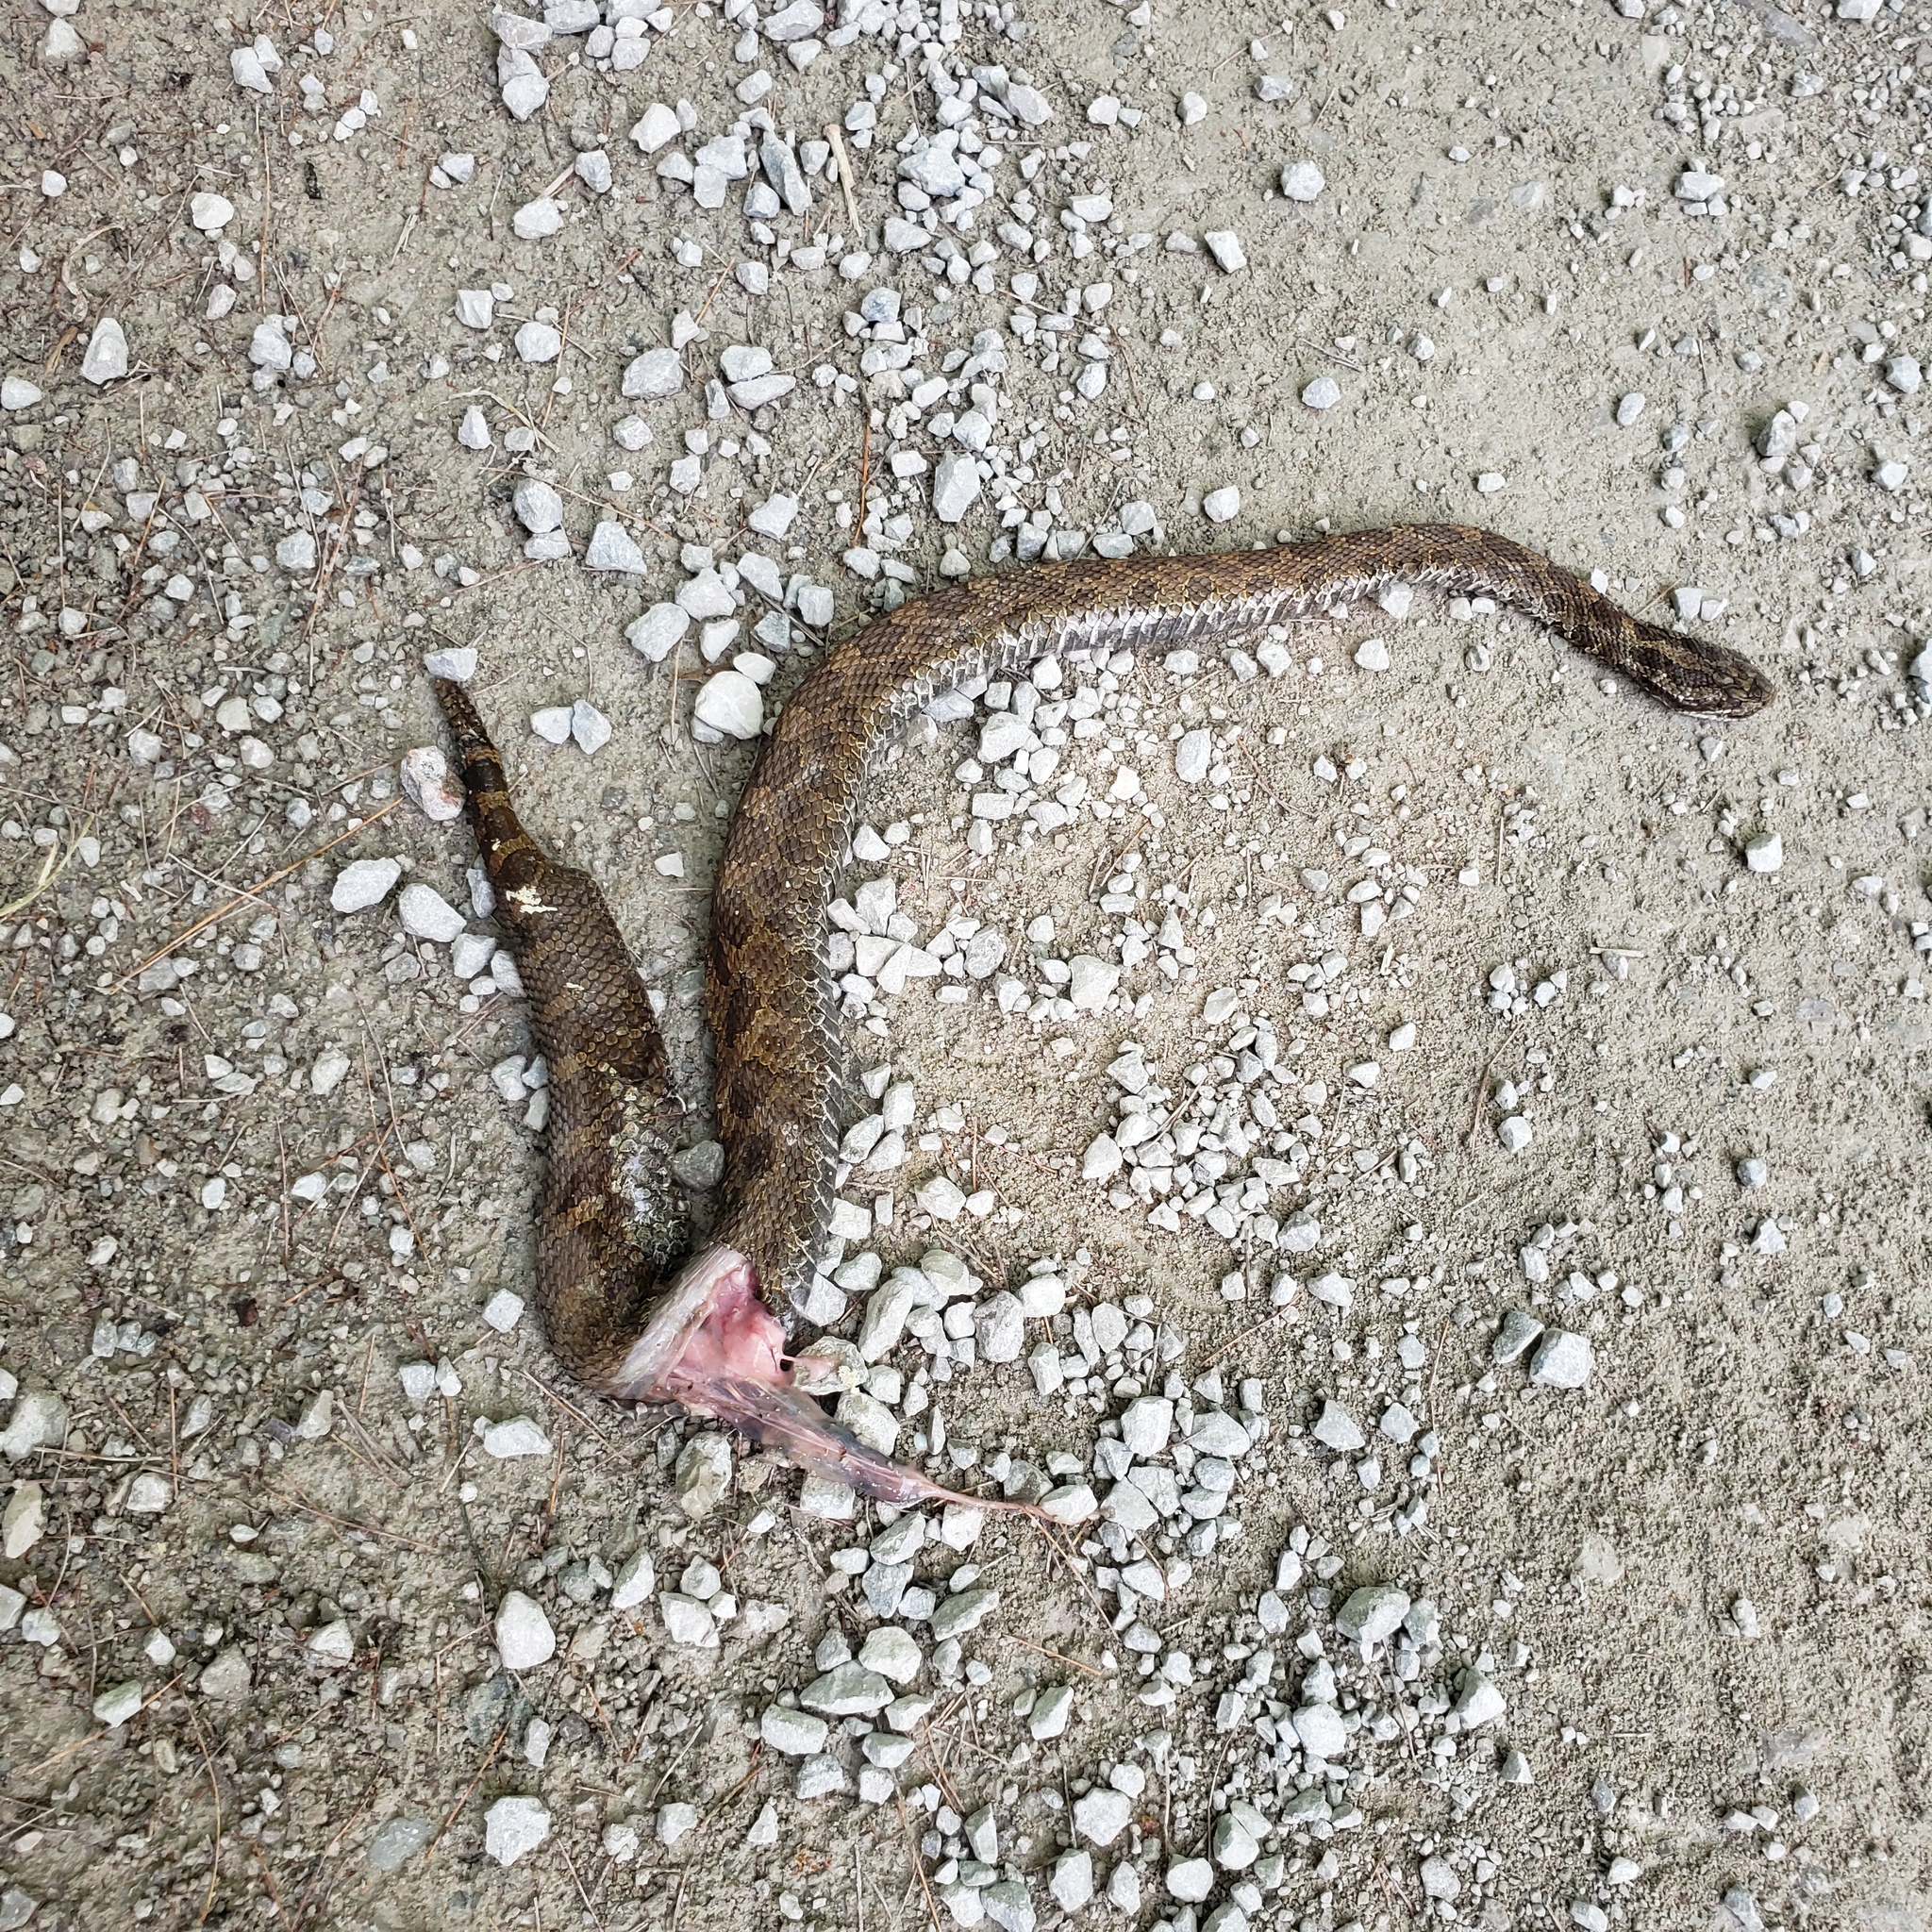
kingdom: Animalia
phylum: Chordata
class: Squamata
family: Viperidae
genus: Sistrurus
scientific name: Sistrurus catenatus
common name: Massasauga
